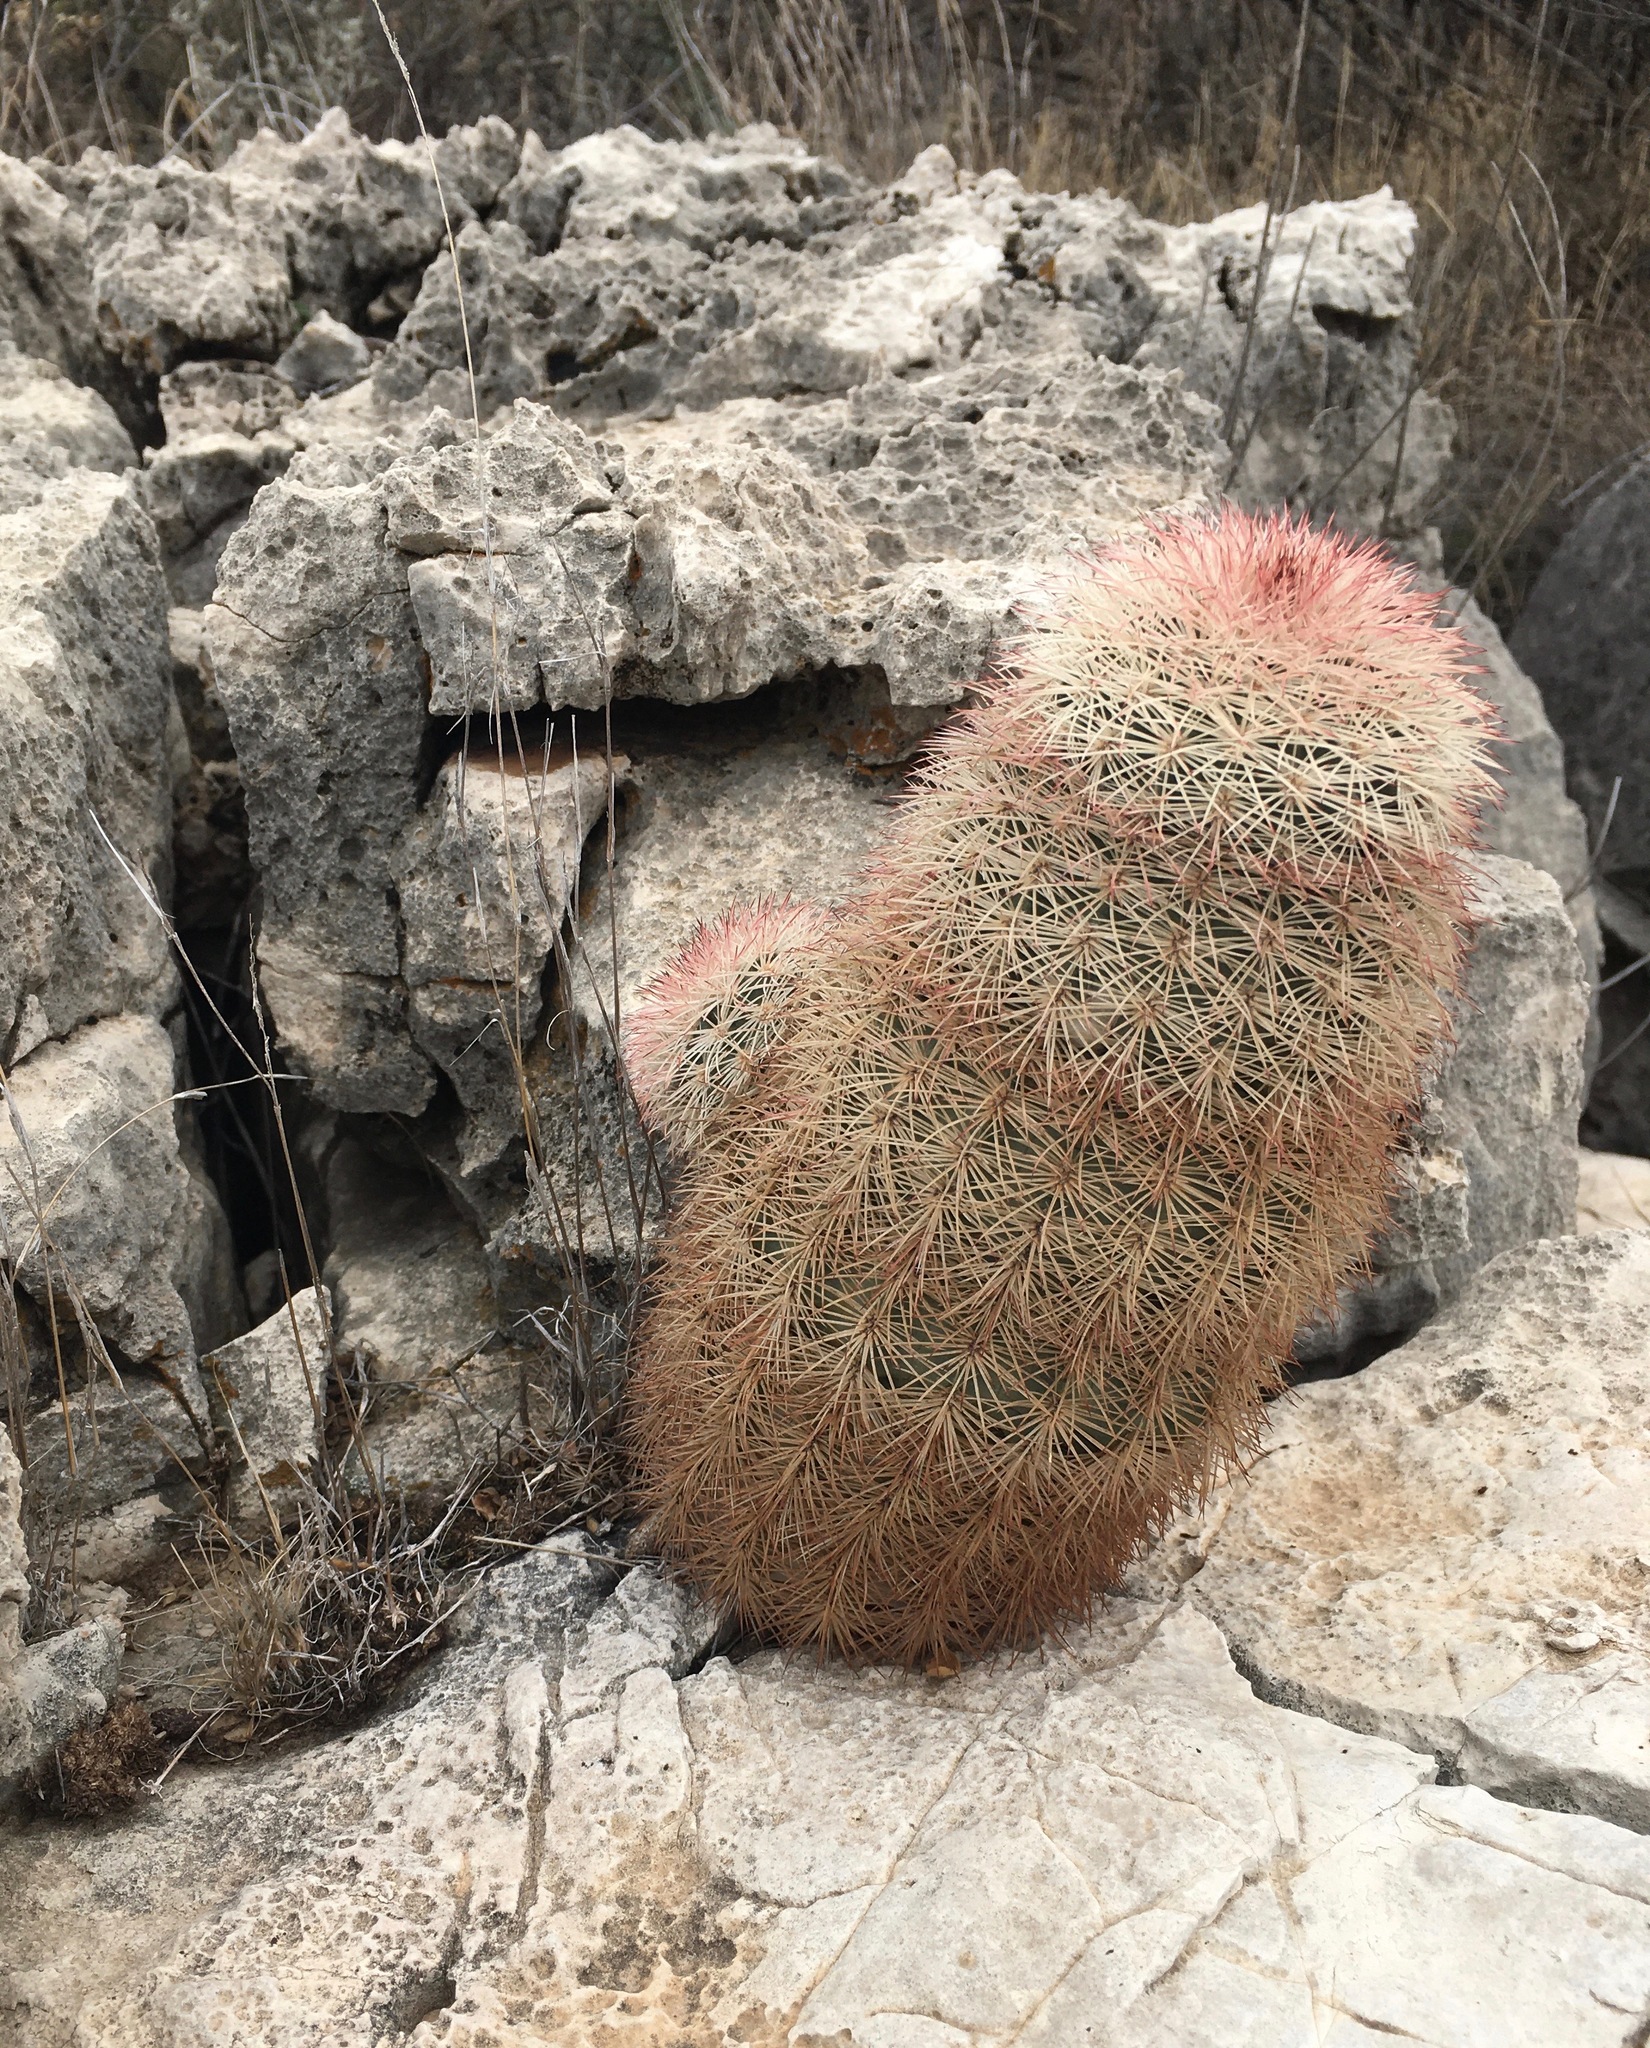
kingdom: Plantae
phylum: Tracheophyta
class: Magnoliopsida
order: Caryophyllales
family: Cactaceae
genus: Echinocereus
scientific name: Echinocereus dasyacanthus
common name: Spiny hedgehog cactus
